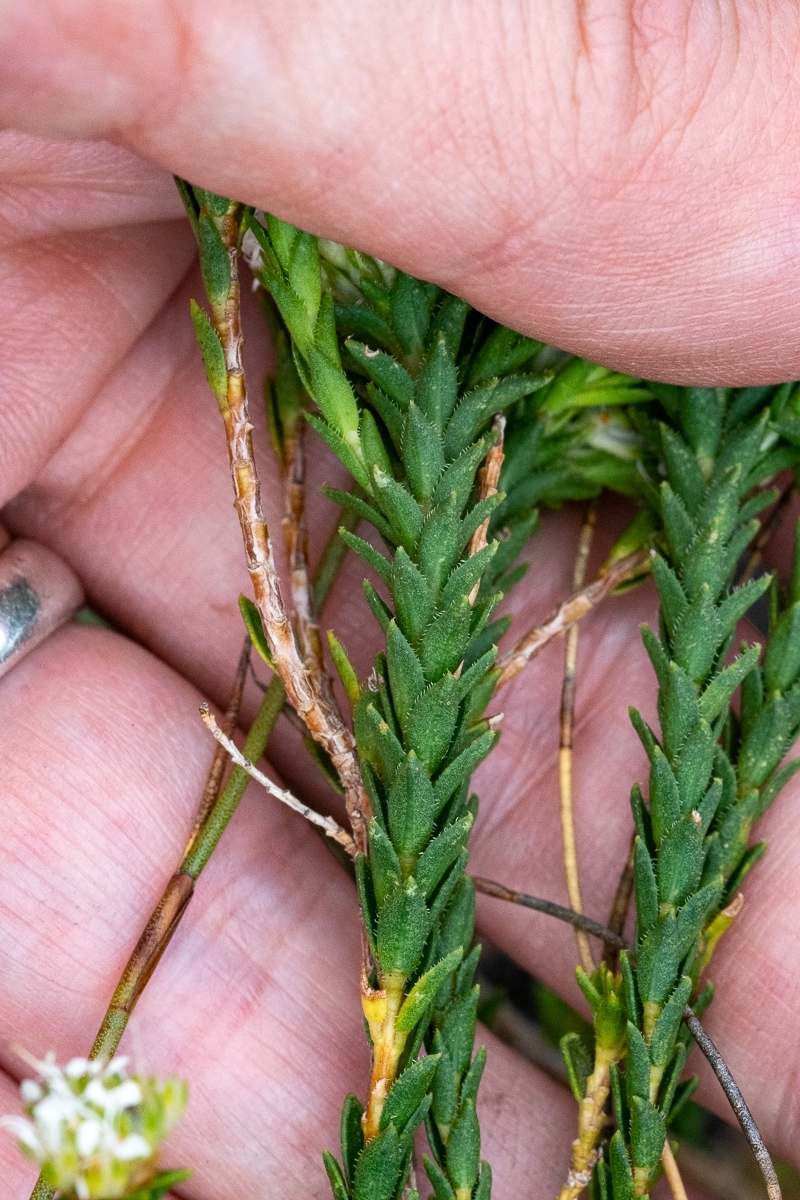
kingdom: Plantae
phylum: Tracheophyta
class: Magnoliopsida
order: Sapindales
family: Rutaceae
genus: Agathosma
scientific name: Agathosma imbricata
